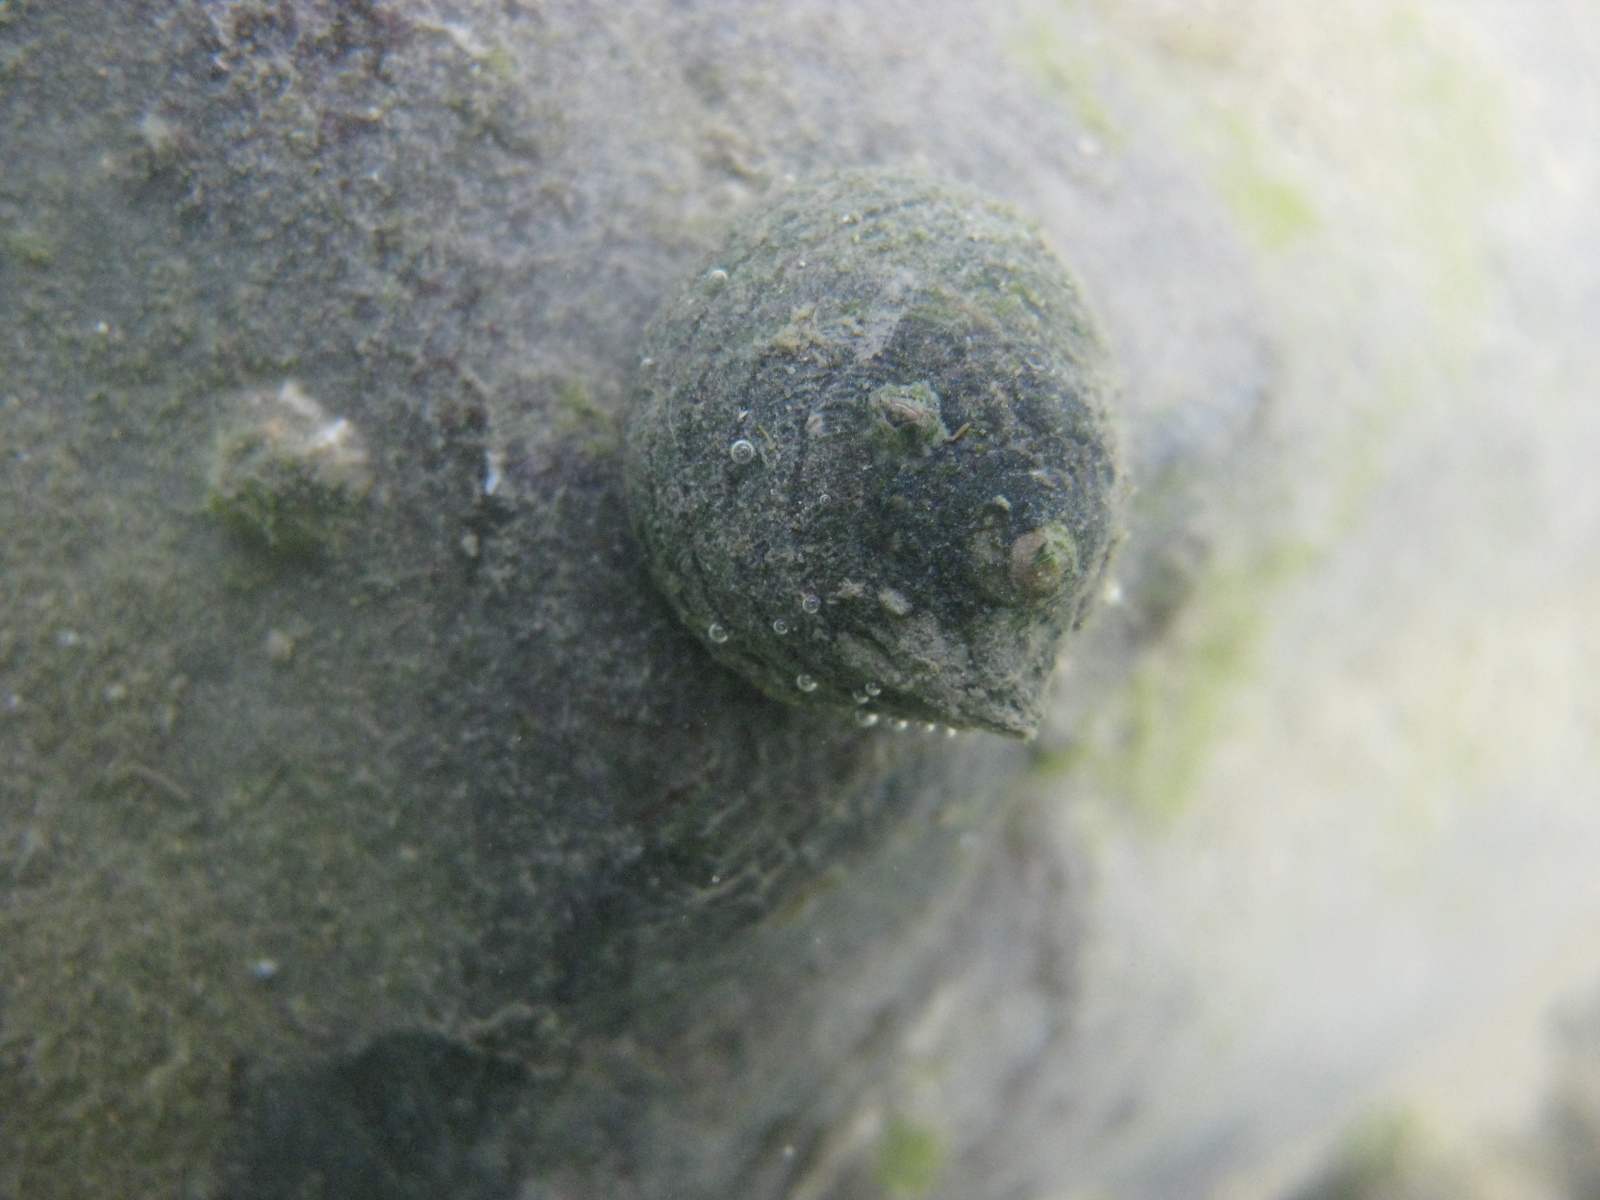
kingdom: Animalia
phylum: Mollusca
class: Gastropoda
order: Trochida
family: Trochidae
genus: Diloma
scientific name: Diloma aethiops
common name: Scorched monodont
